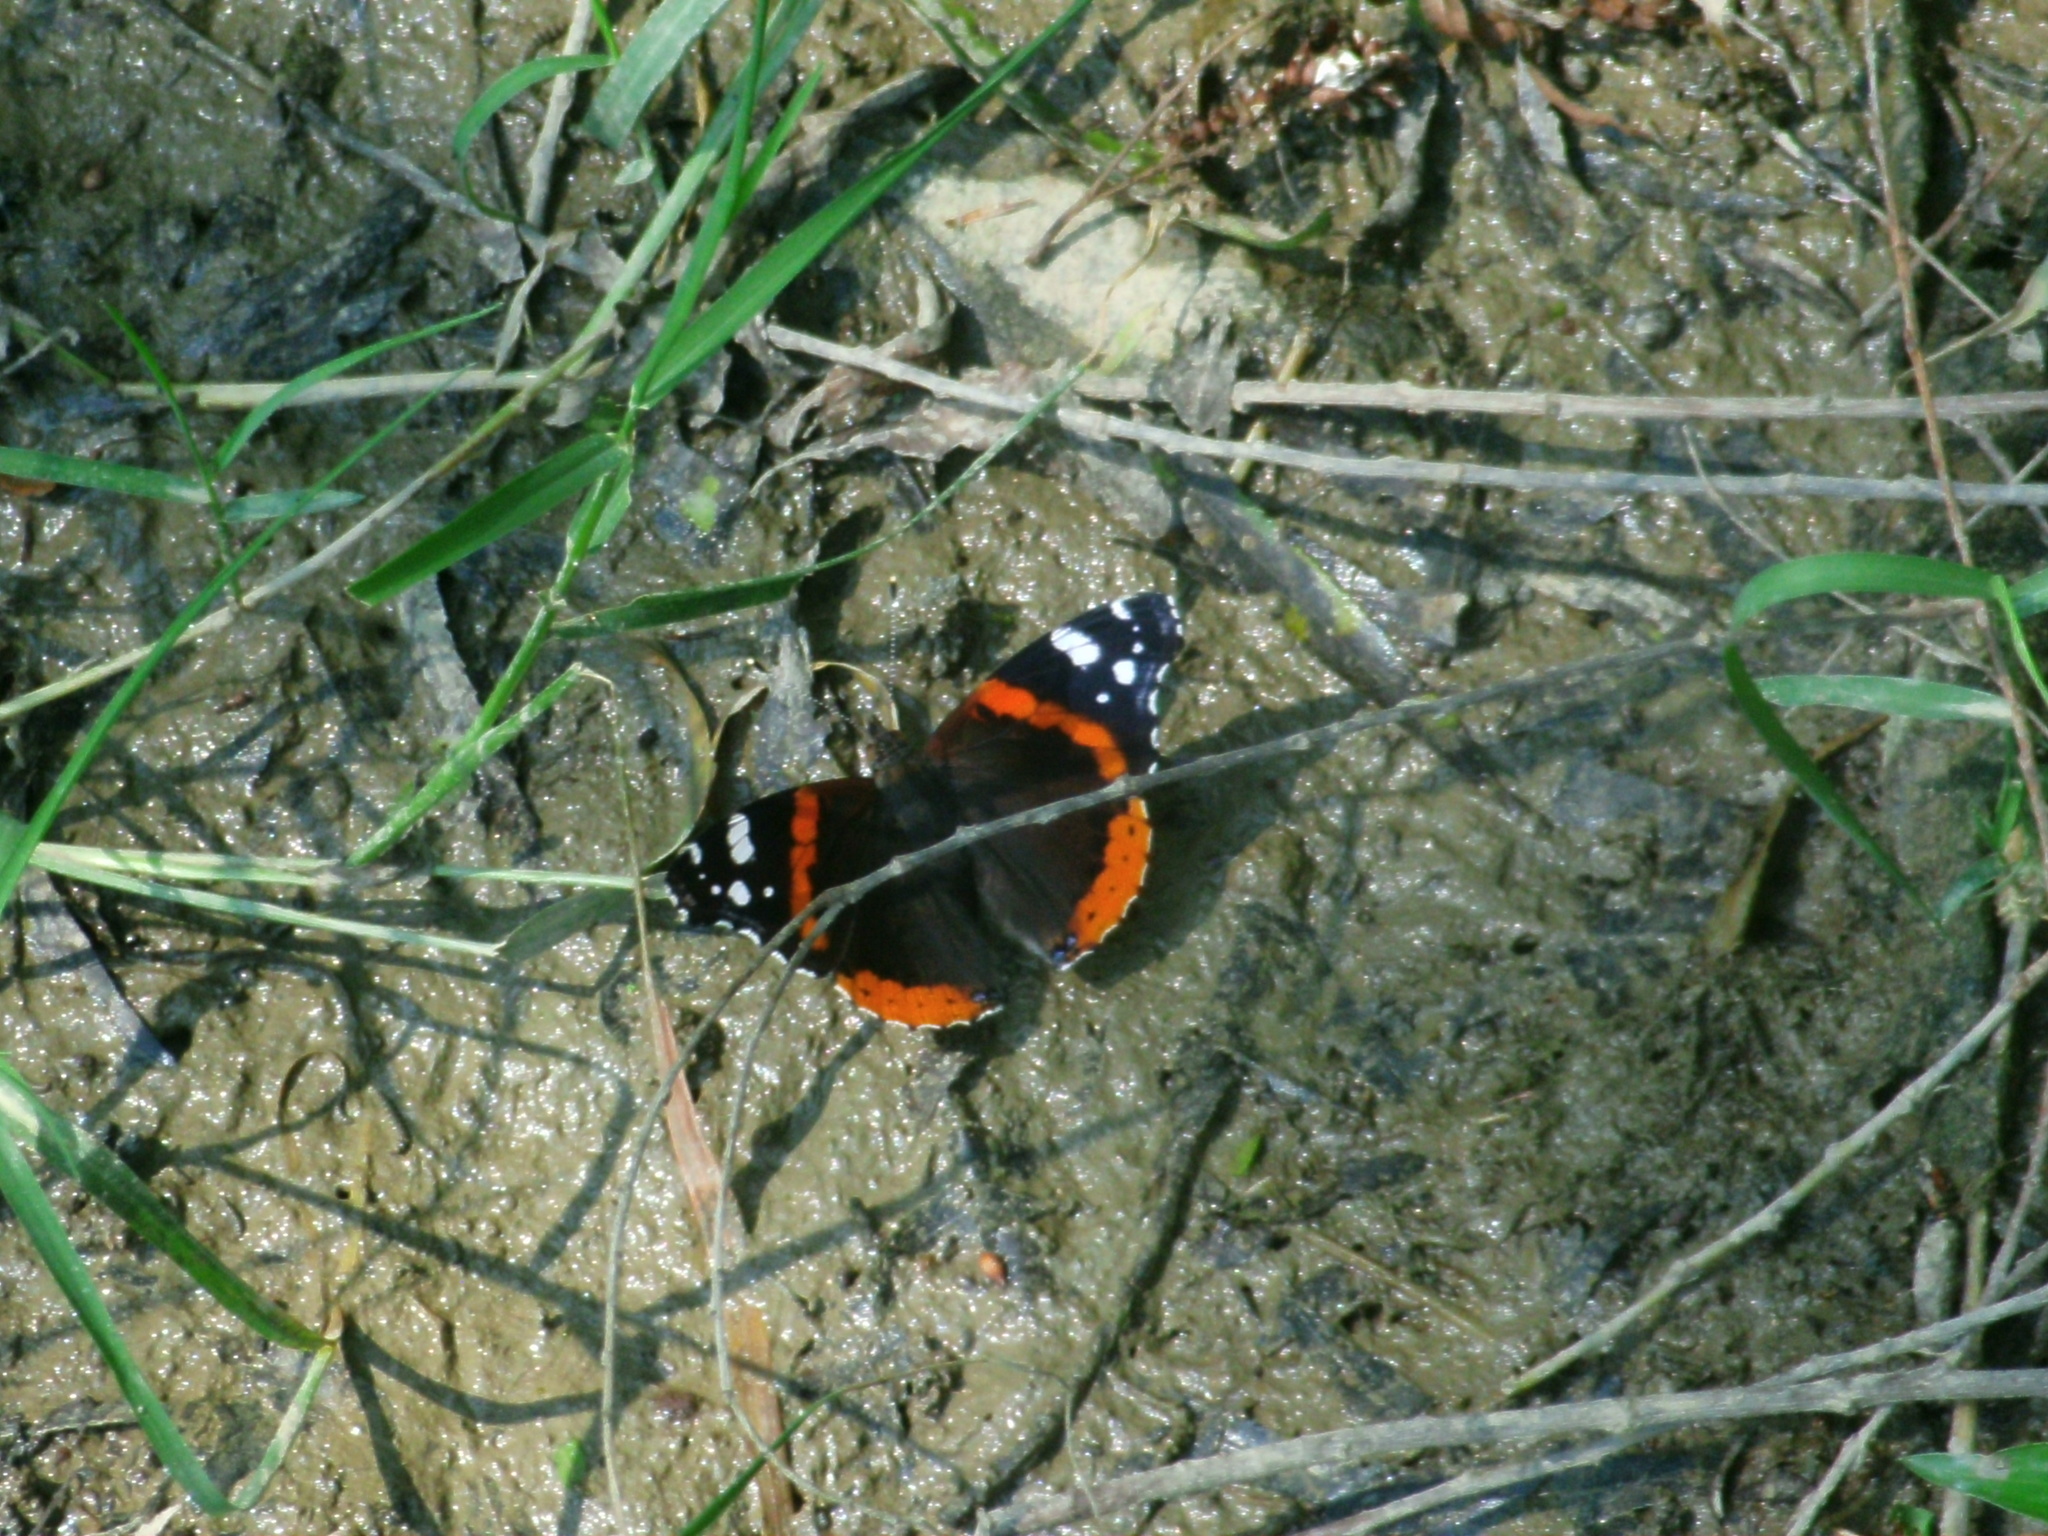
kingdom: Animalia
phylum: Arthropoda
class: Insecta
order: Lepidoptera
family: Nymphalidae
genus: Vanessa
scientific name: Vanessa atalanta
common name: Red admiral
